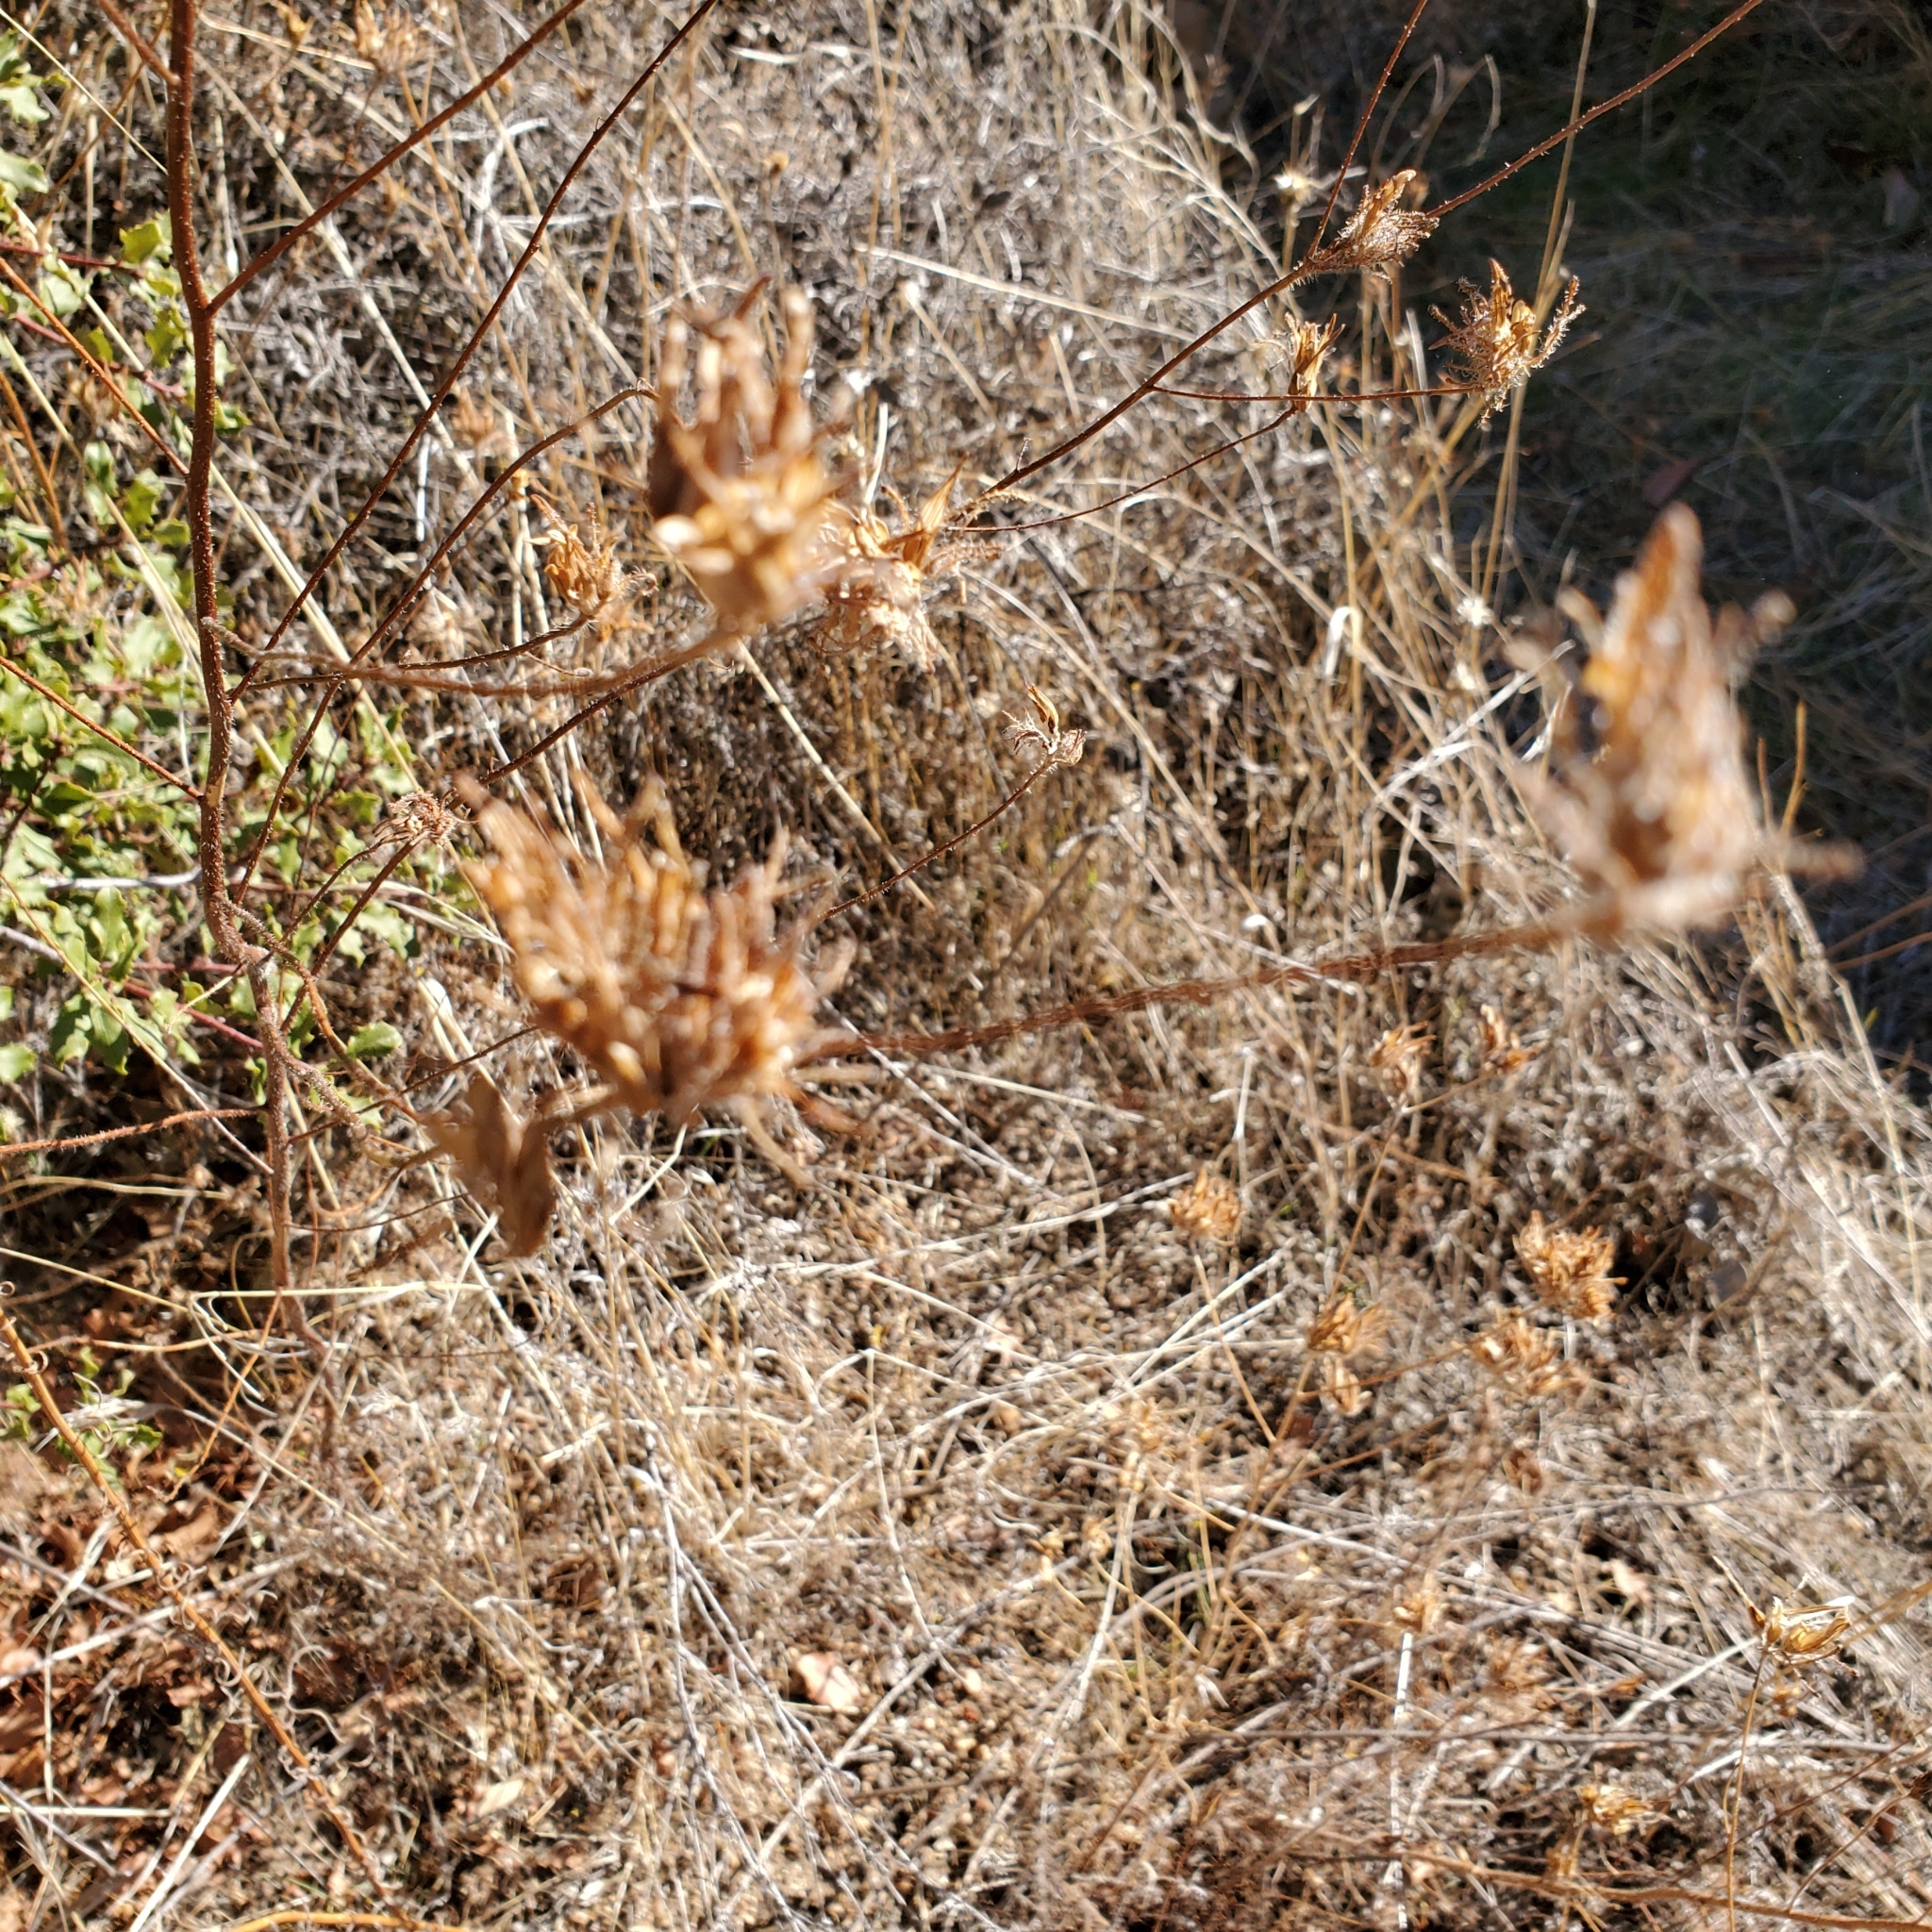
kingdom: Plantae
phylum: Tracheophyta
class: Magnoliopsida
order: Lamiales
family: Orobanchaceae
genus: Cordylanthus
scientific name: Cordylanthus rigidus
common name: Stiff-branch bird's-beak
